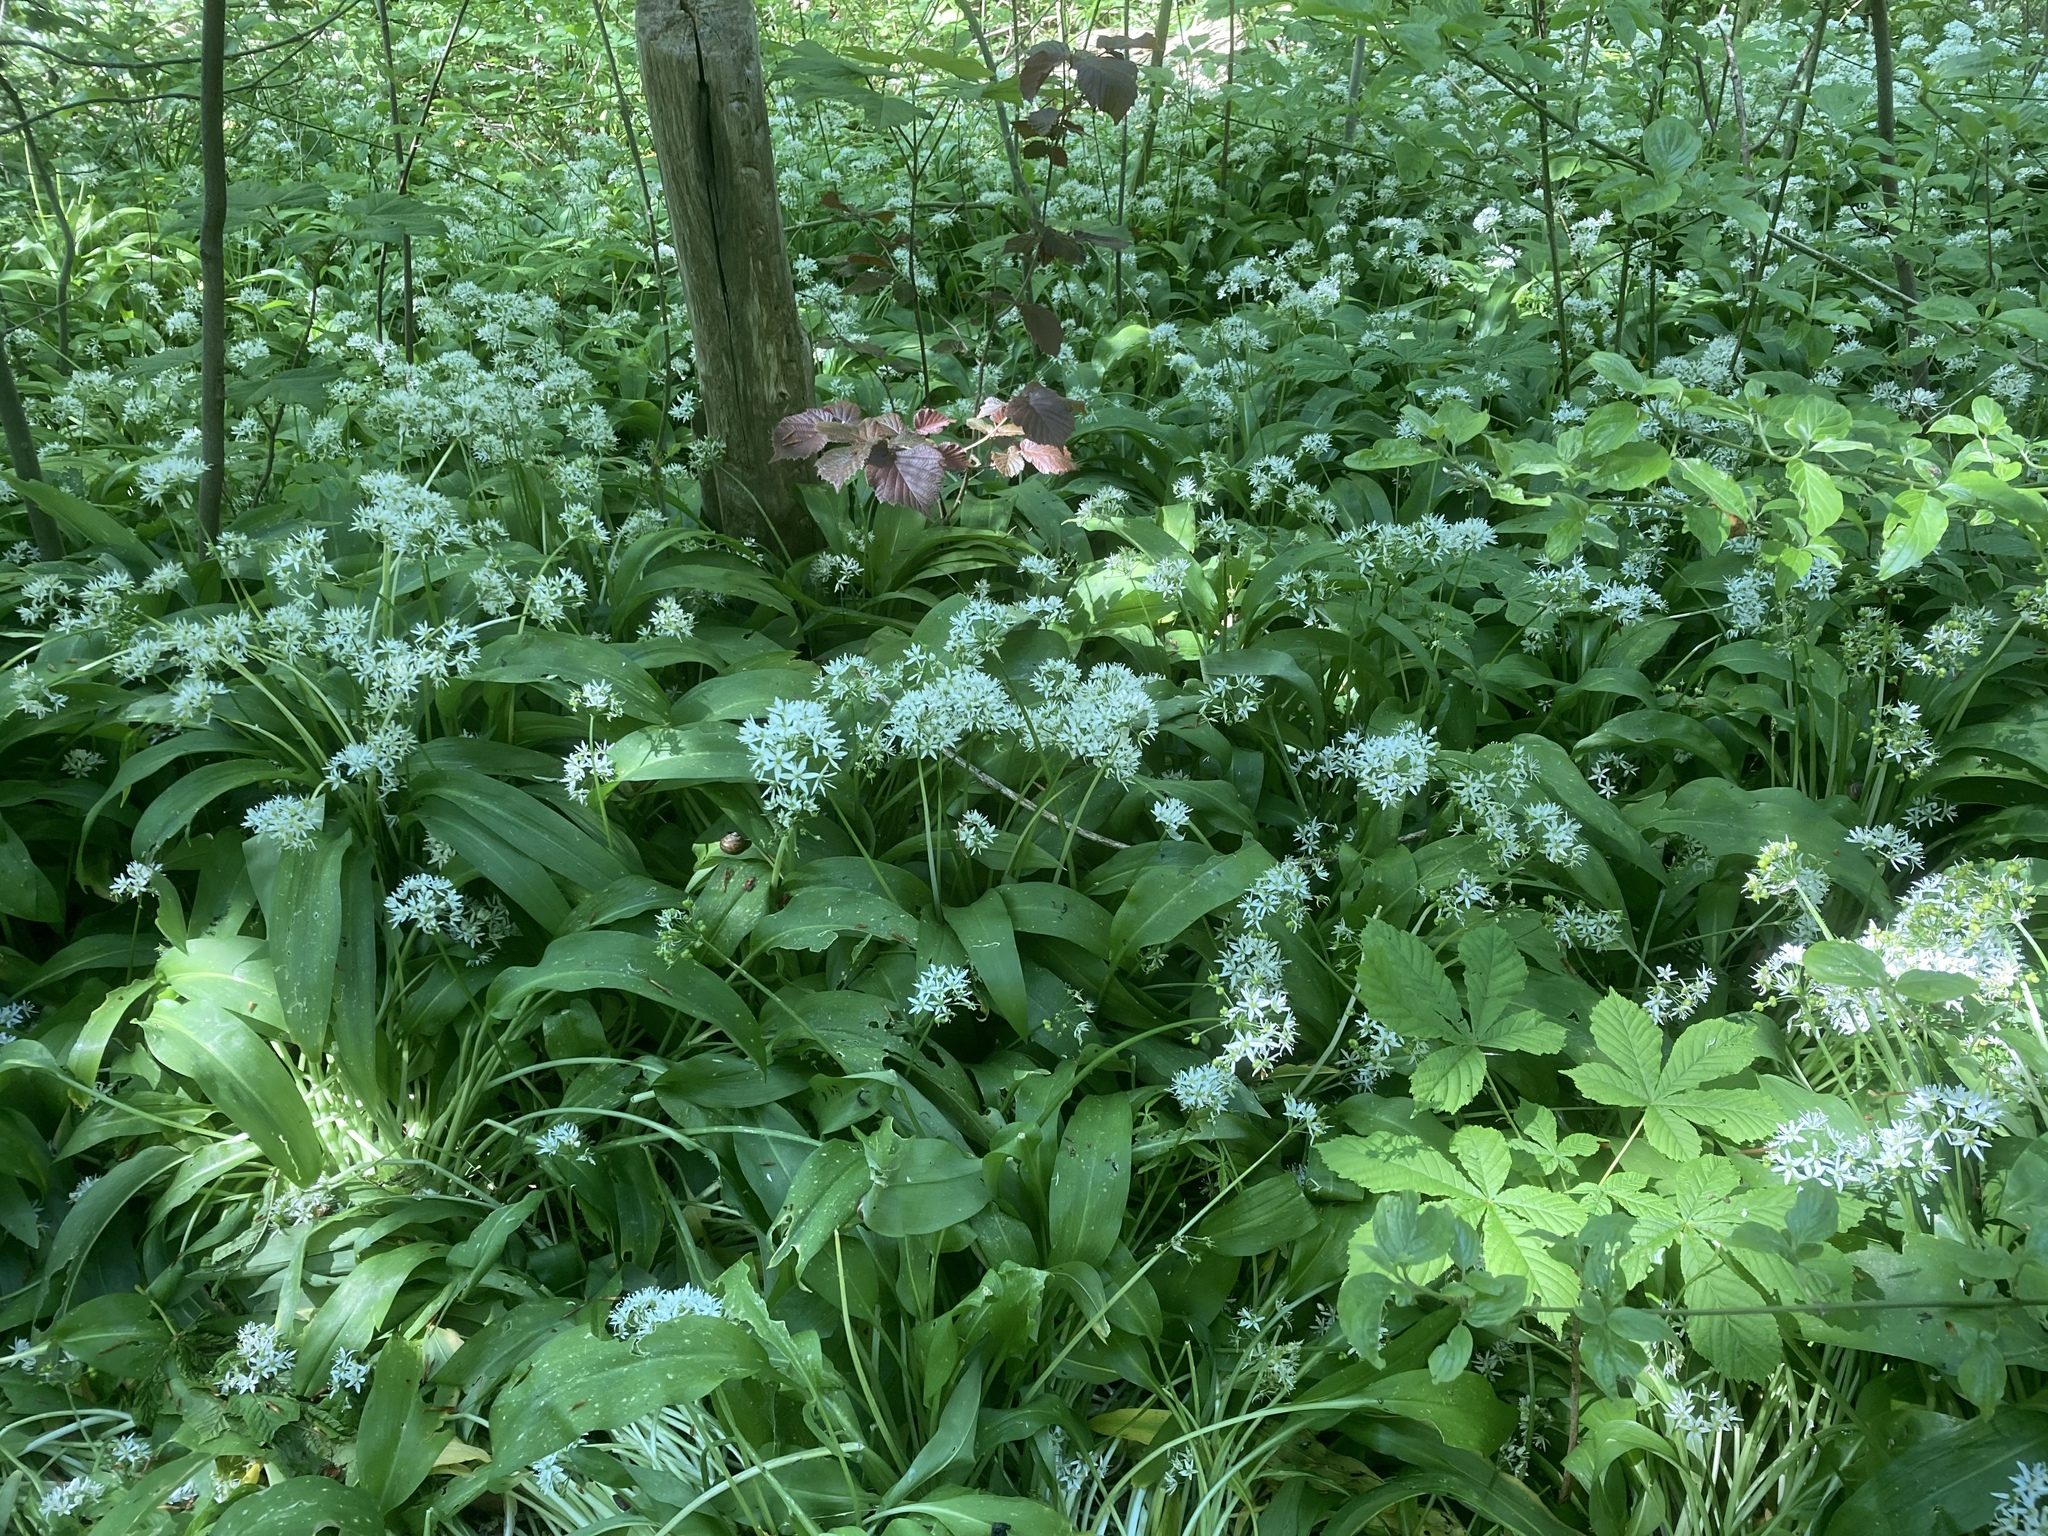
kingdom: Plantae
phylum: Tracheophyta
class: Liliopsida
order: Asparagales
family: Amaryllidaceae
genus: Allium
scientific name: Allium ursinum
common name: Ramsons
